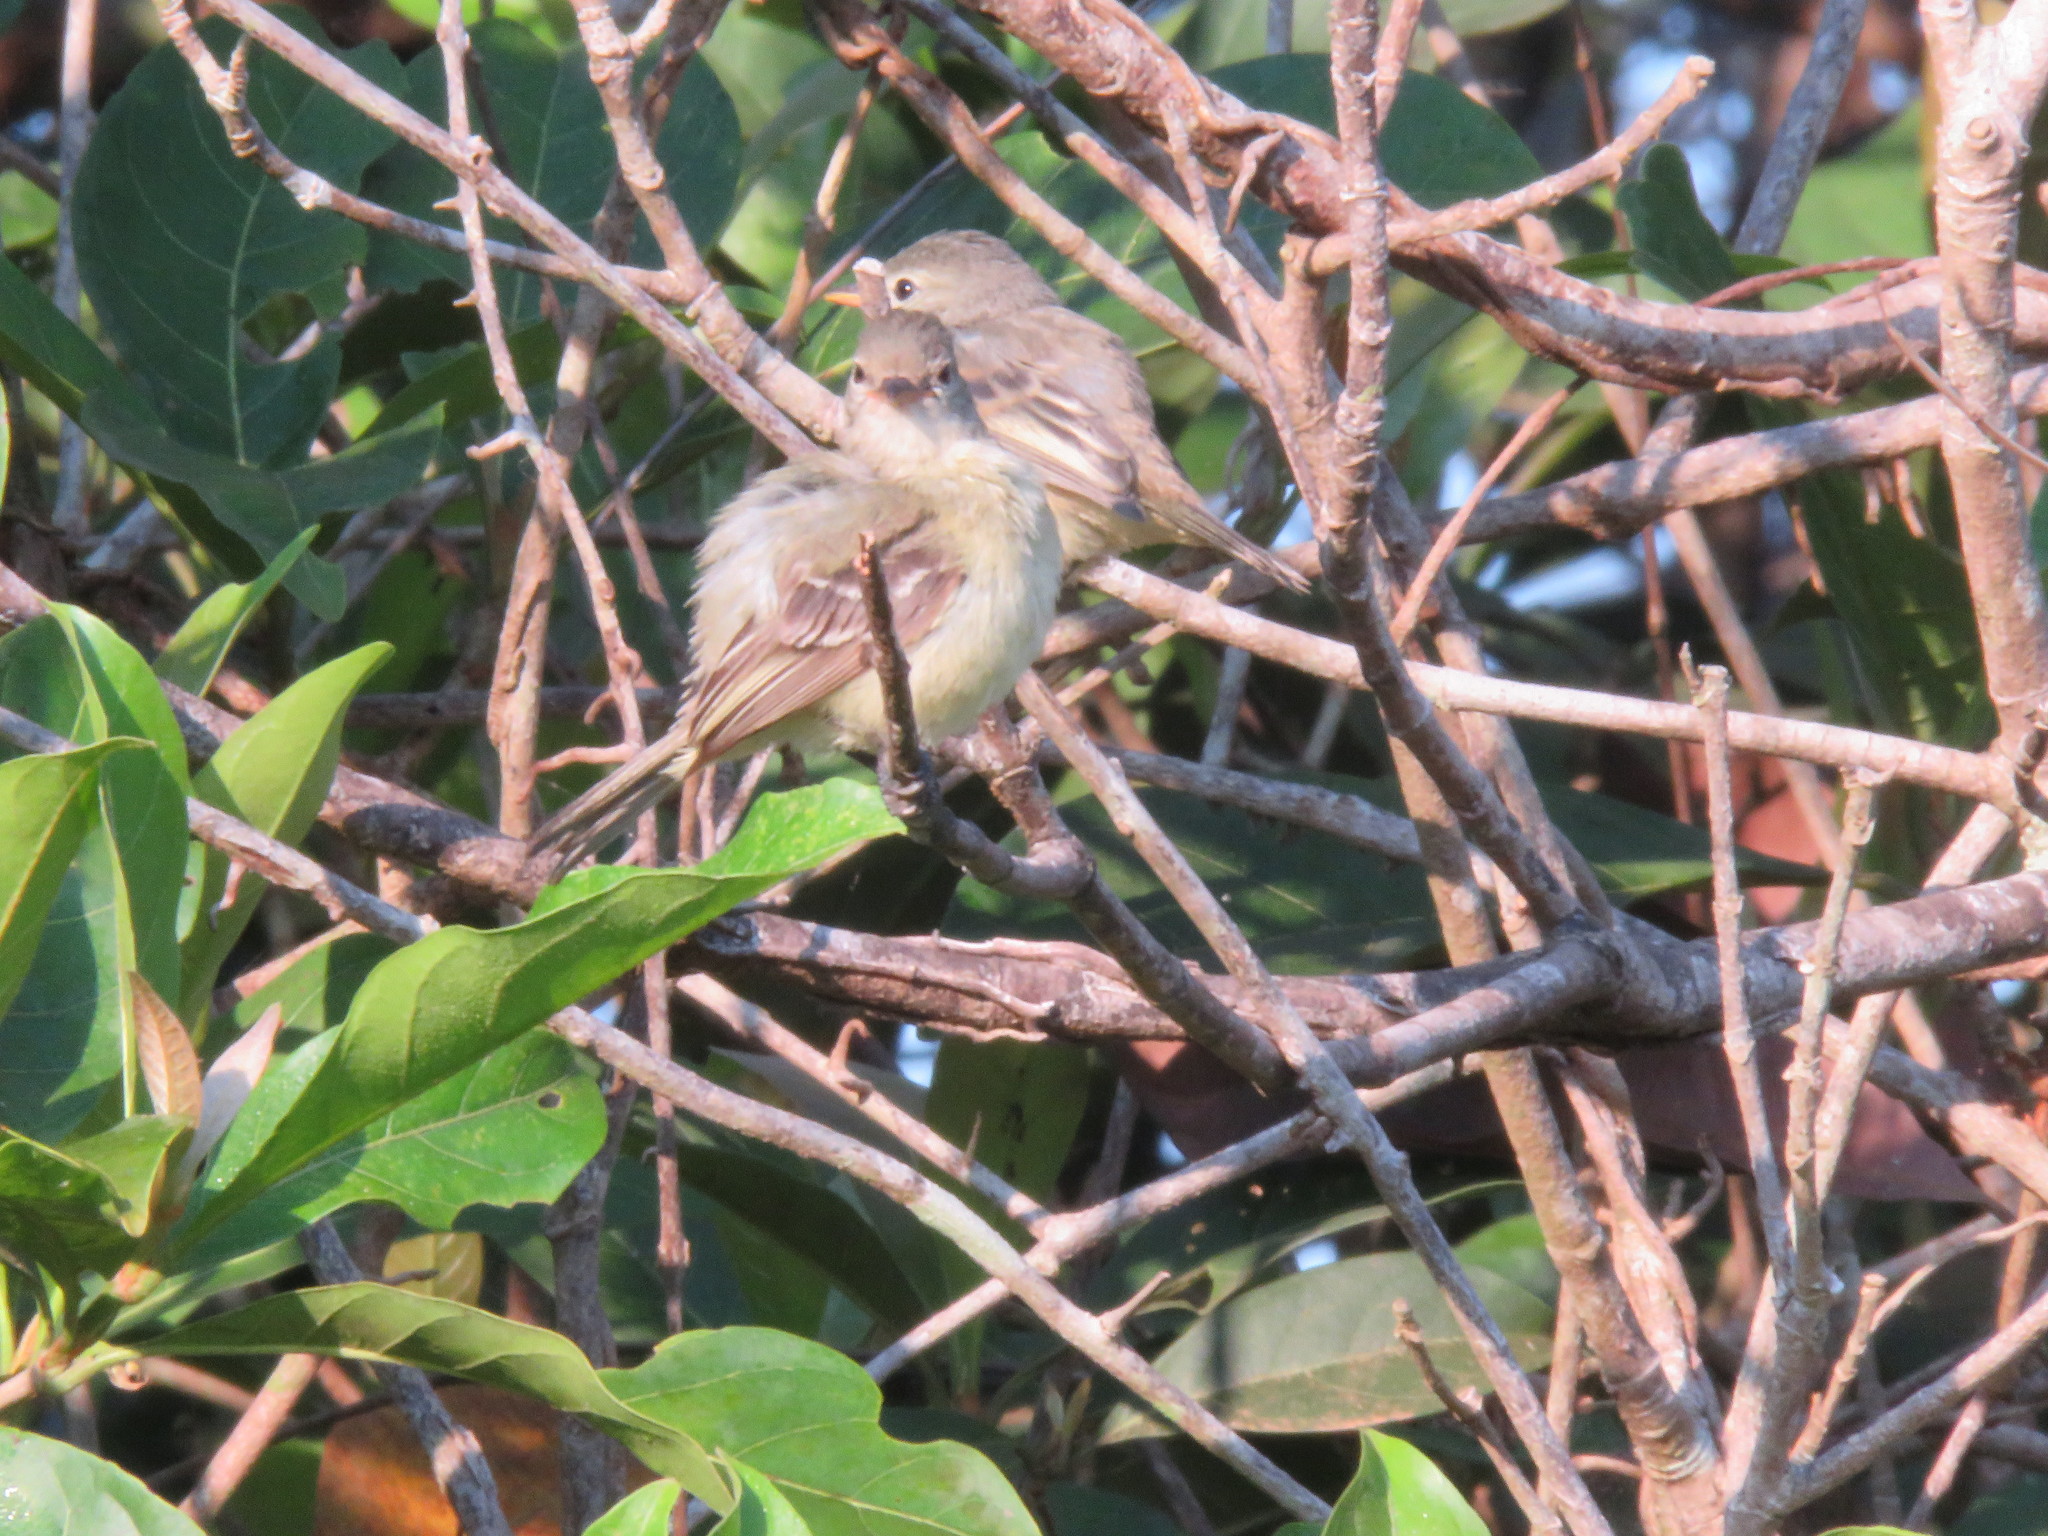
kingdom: Animalia
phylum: Chordata
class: Aves
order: Passeriformes
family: Tyrannidae
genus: Elaenia
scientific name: Elaenia flavogaster
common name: Yellow-bellied elaenia
